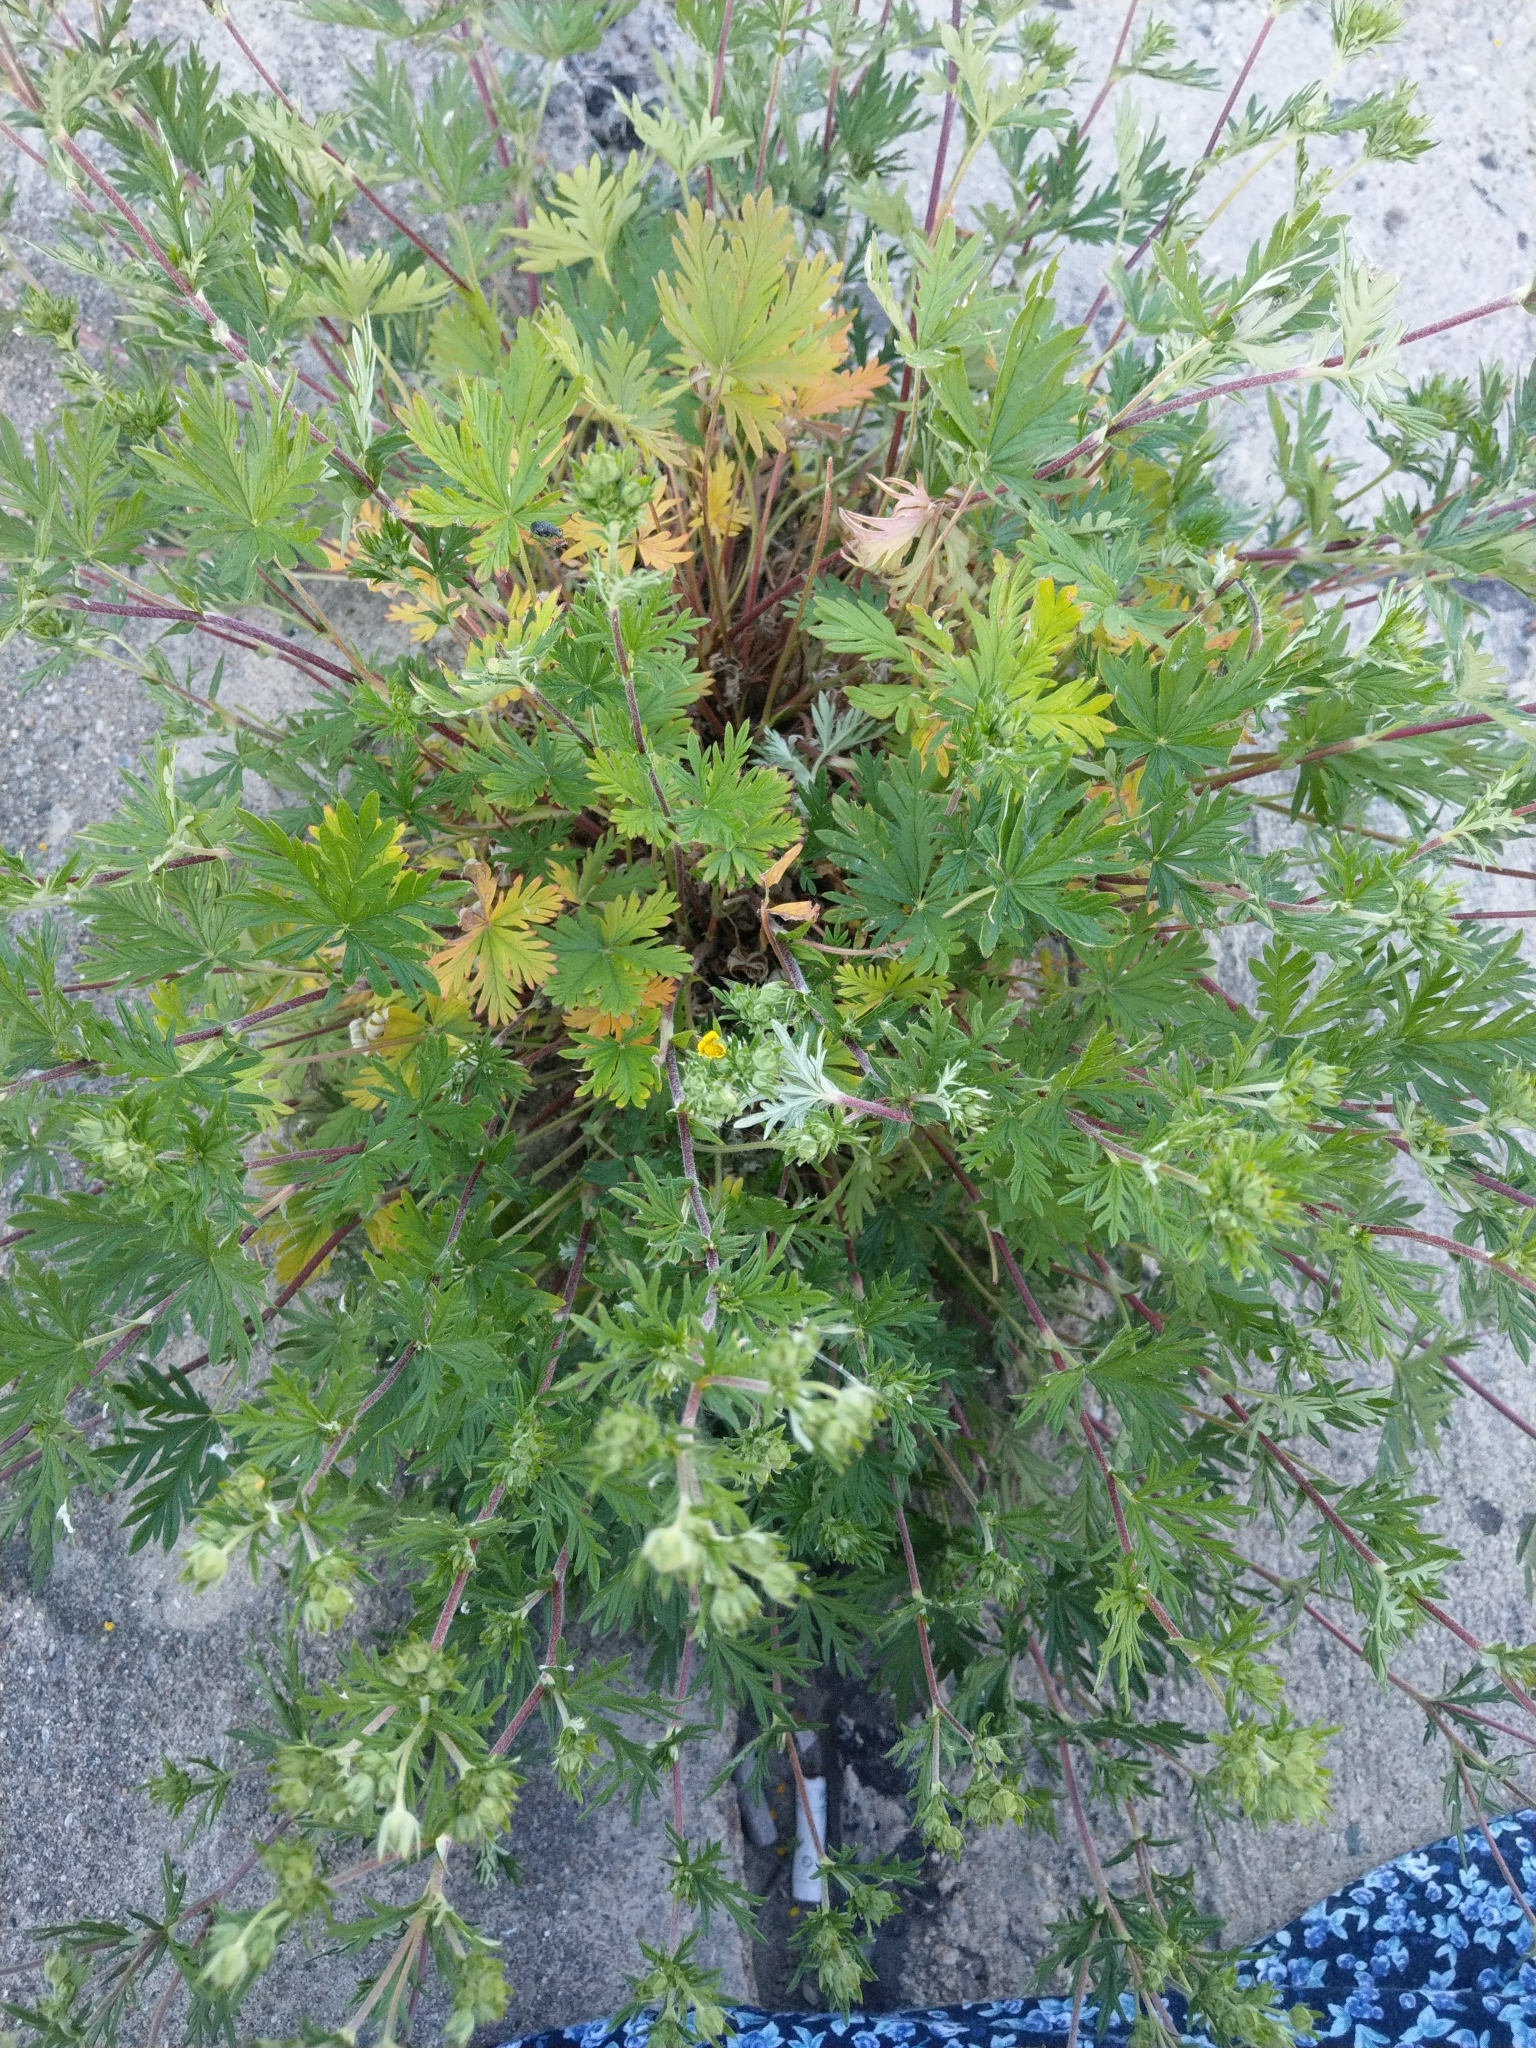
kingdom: Plantae
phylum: Tracheophyta
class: Magnoliopsida
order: Rosales
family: Rosaceae
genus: Potentilla
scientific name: Potentilla argentea
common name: Hoary cinquefoil
